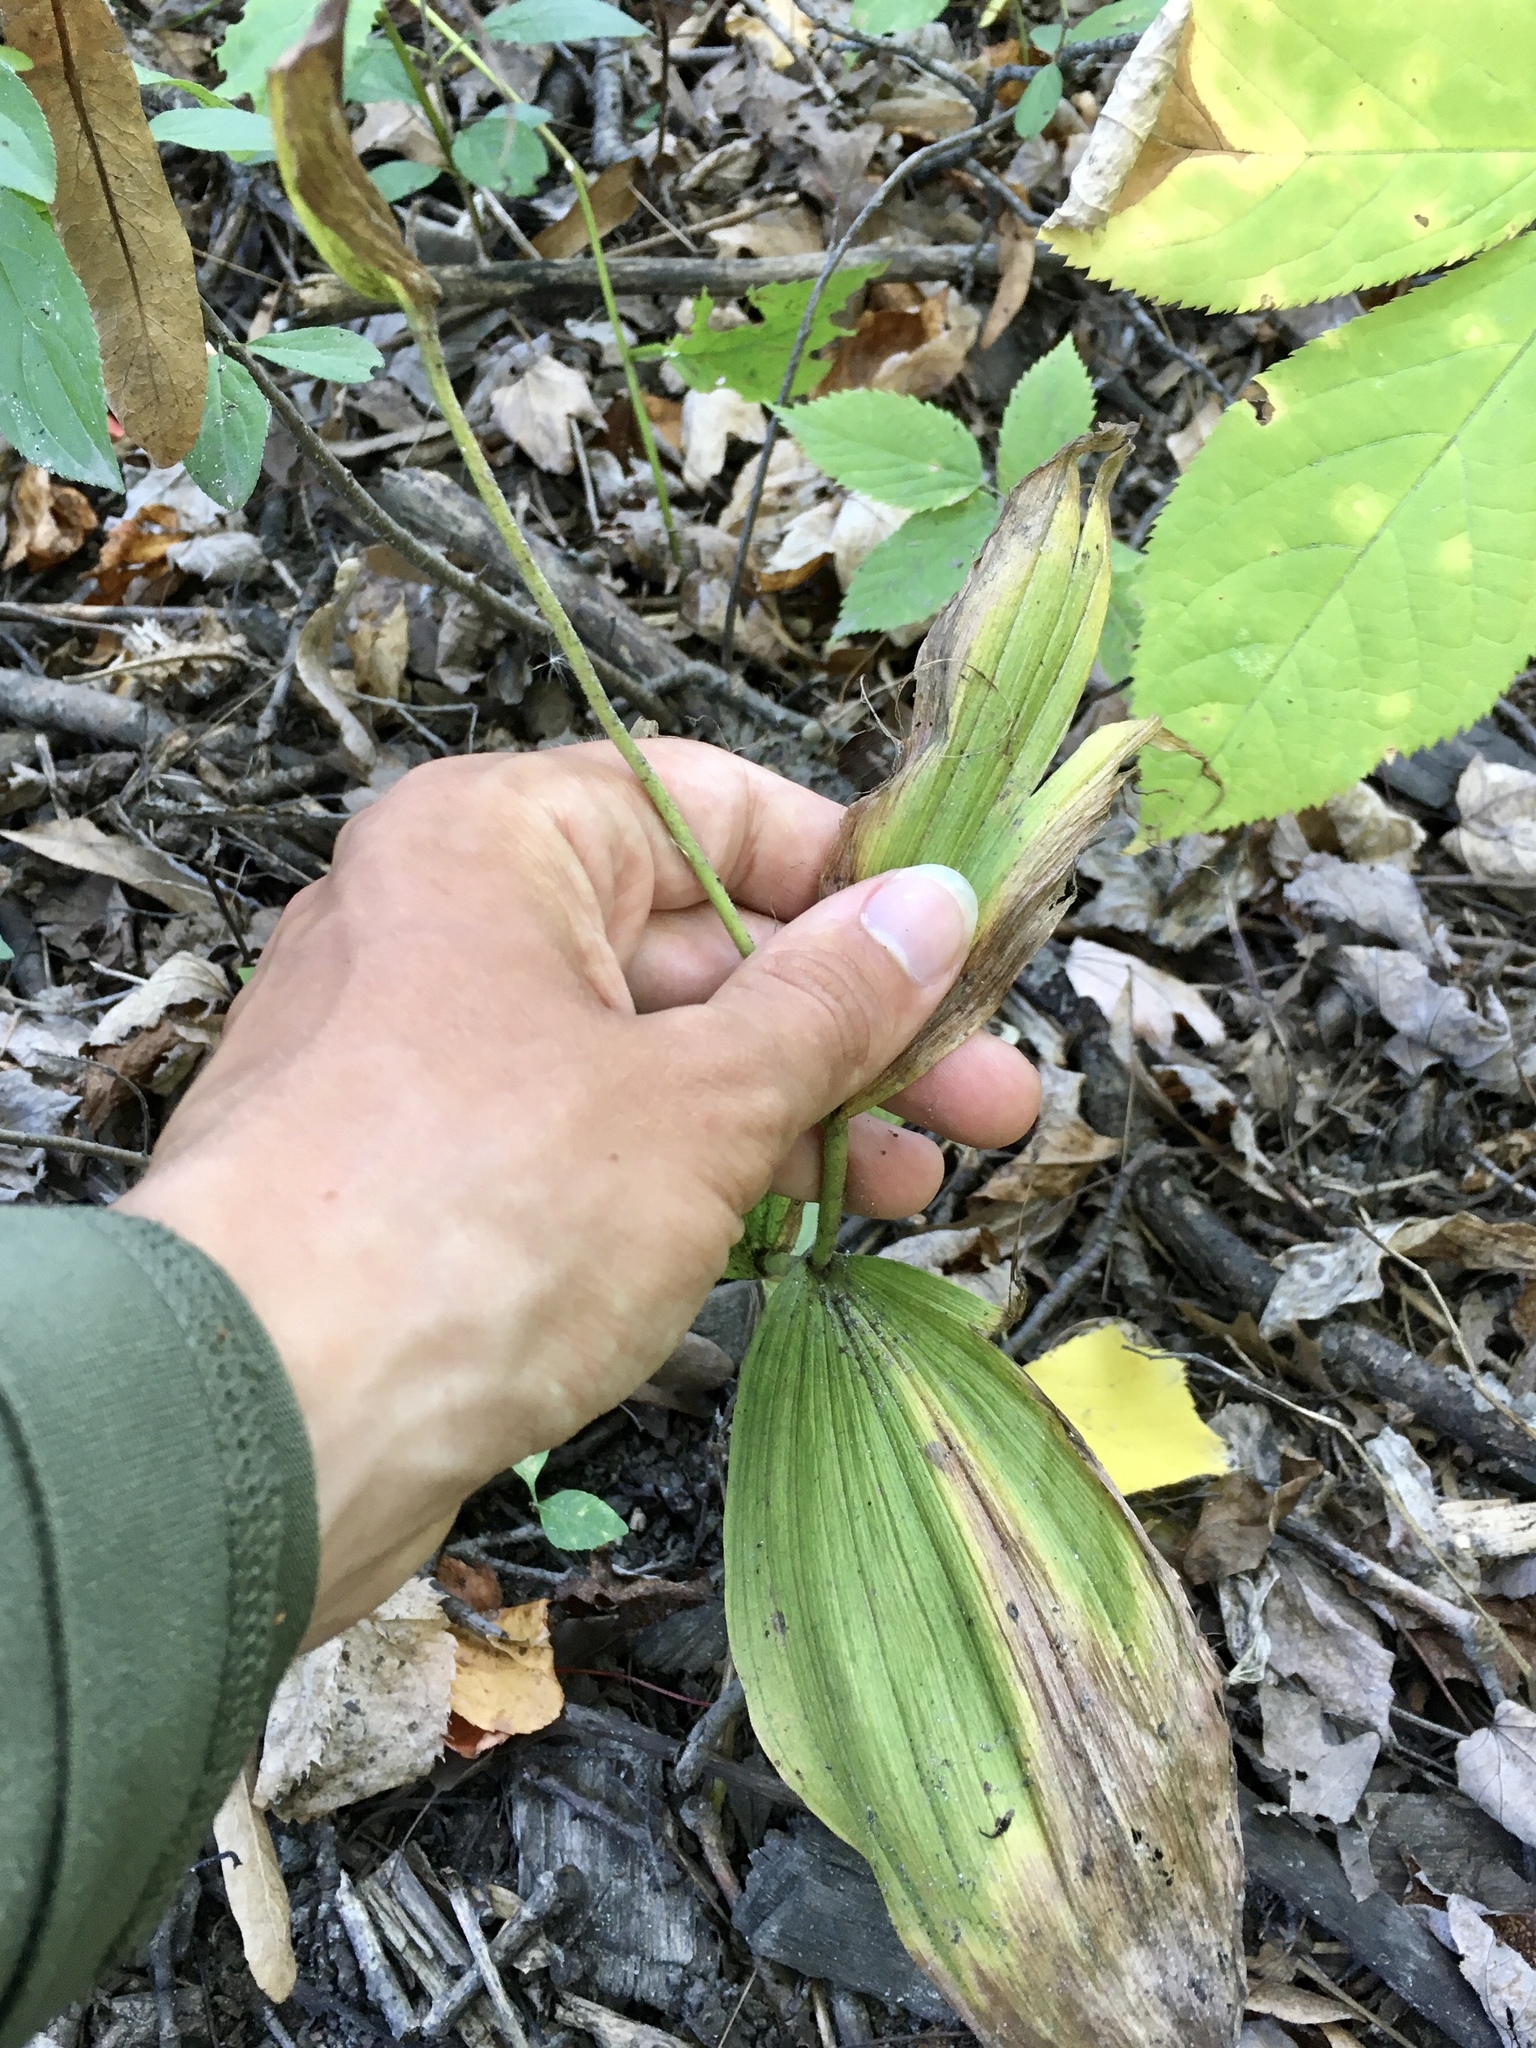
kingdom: Plantae
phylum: Tracheophyta
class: Liliopsida
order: Asparagales
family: Orchidaceae
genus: Cypripedium
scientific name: Cypripedium parviflorum
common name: American yellow lady's-slipper
